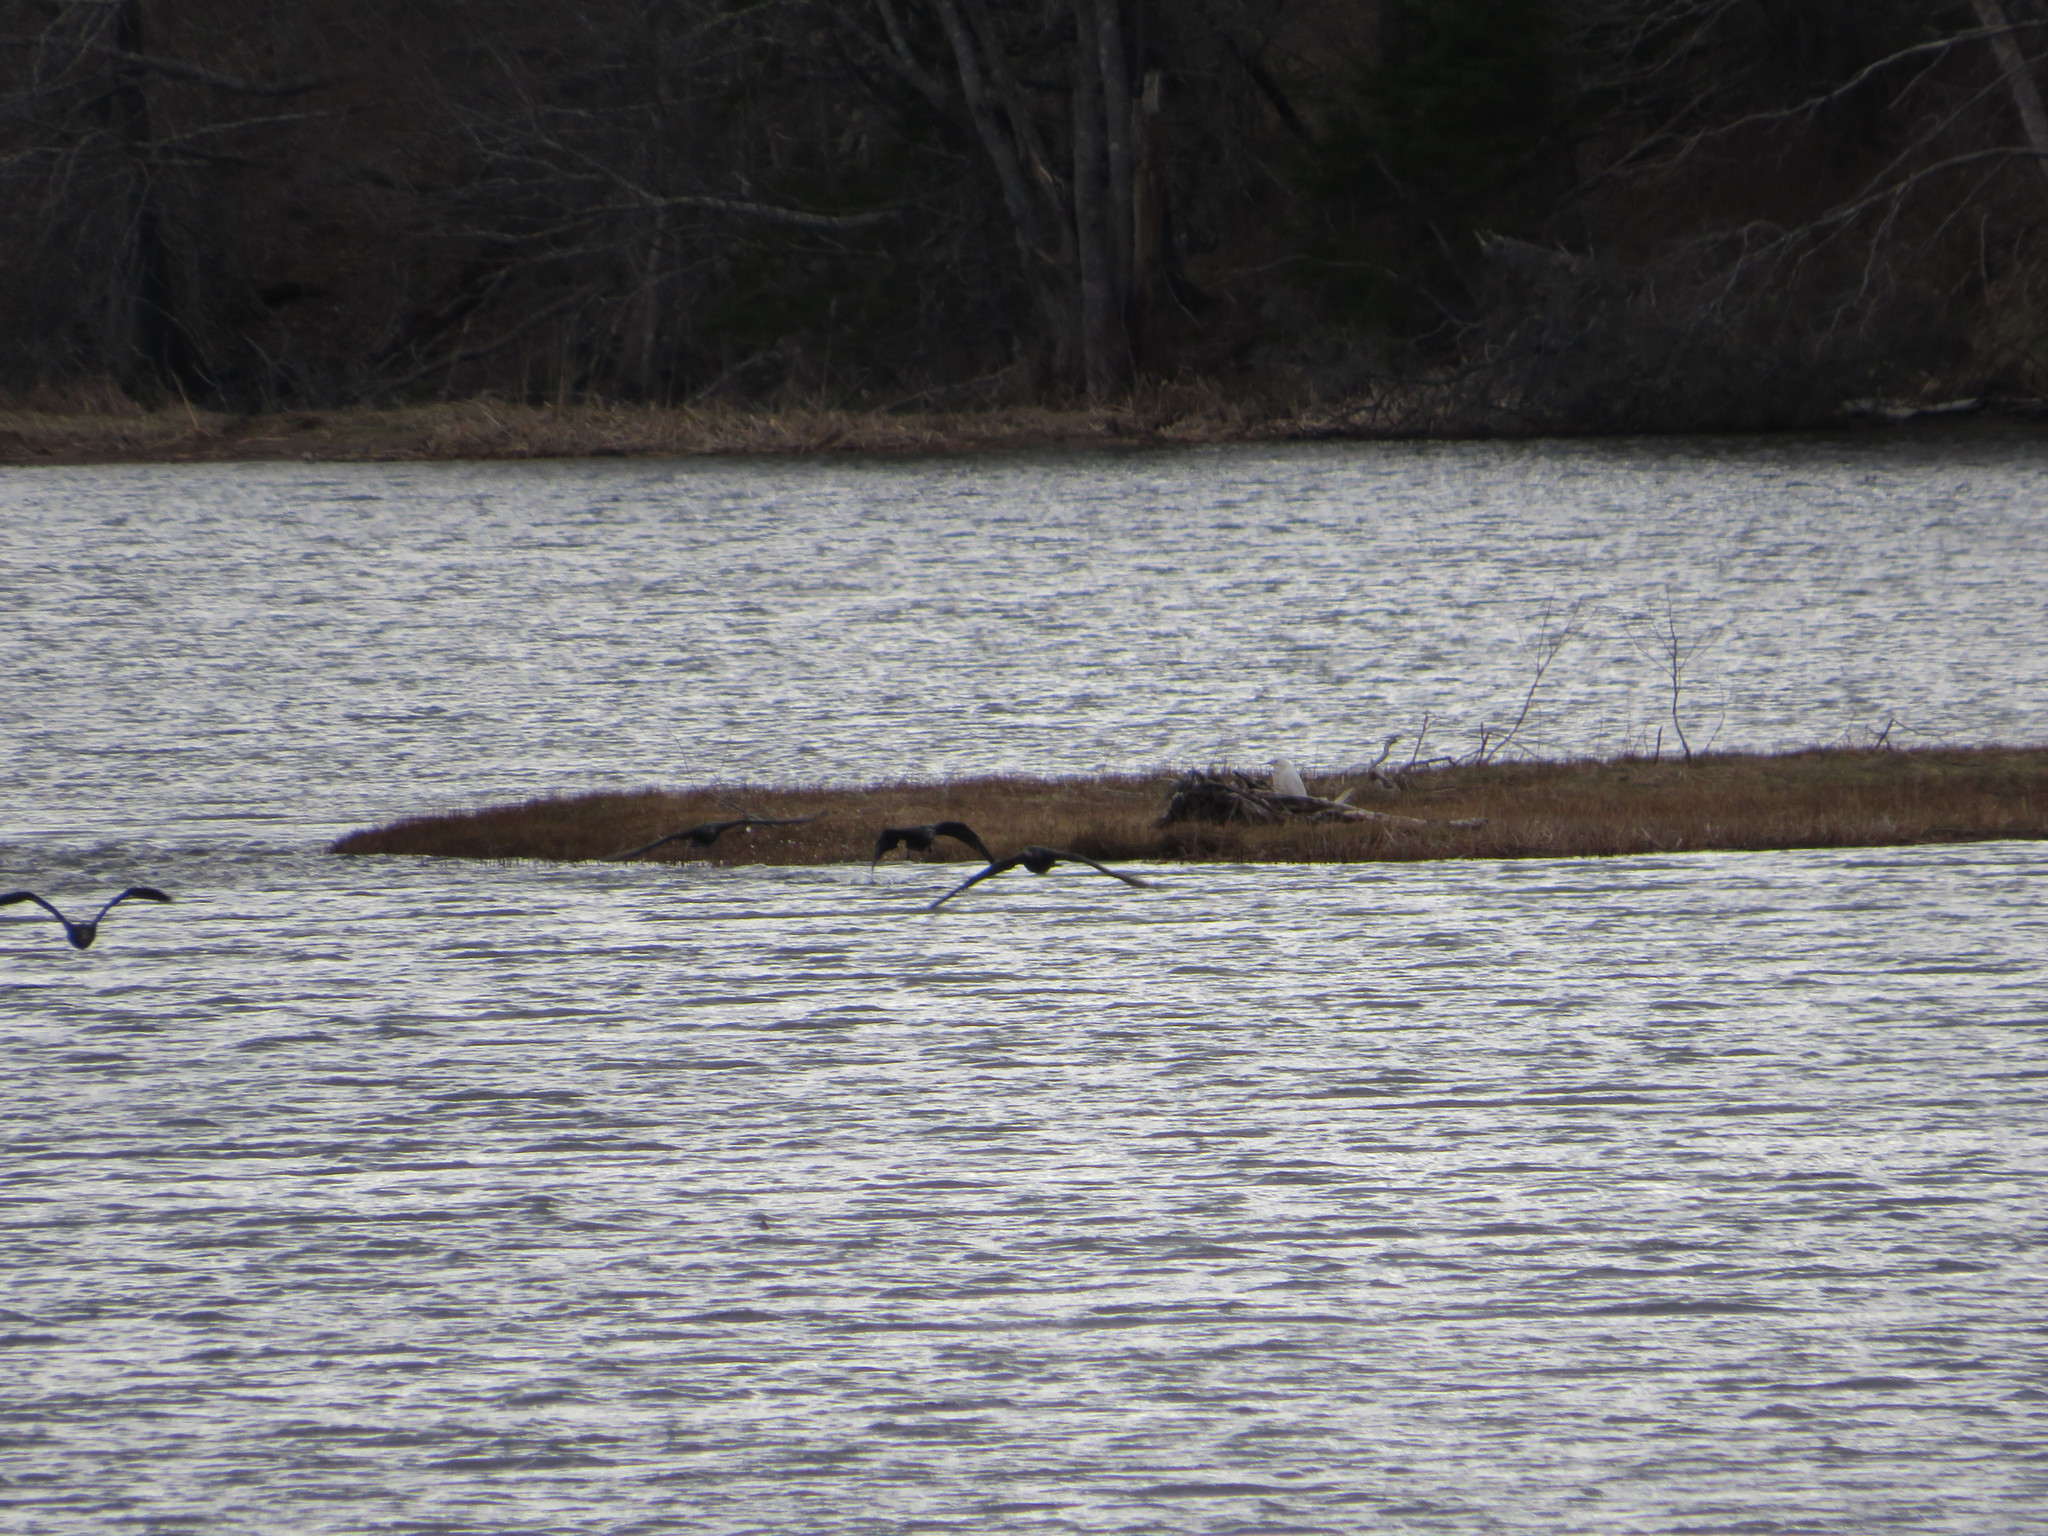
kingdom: Animalia
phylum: Chordata
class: Aves
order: Pelecaniformes
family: Ardeidae
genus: Egretta
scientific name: Egretta thula
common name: Snowy egret
